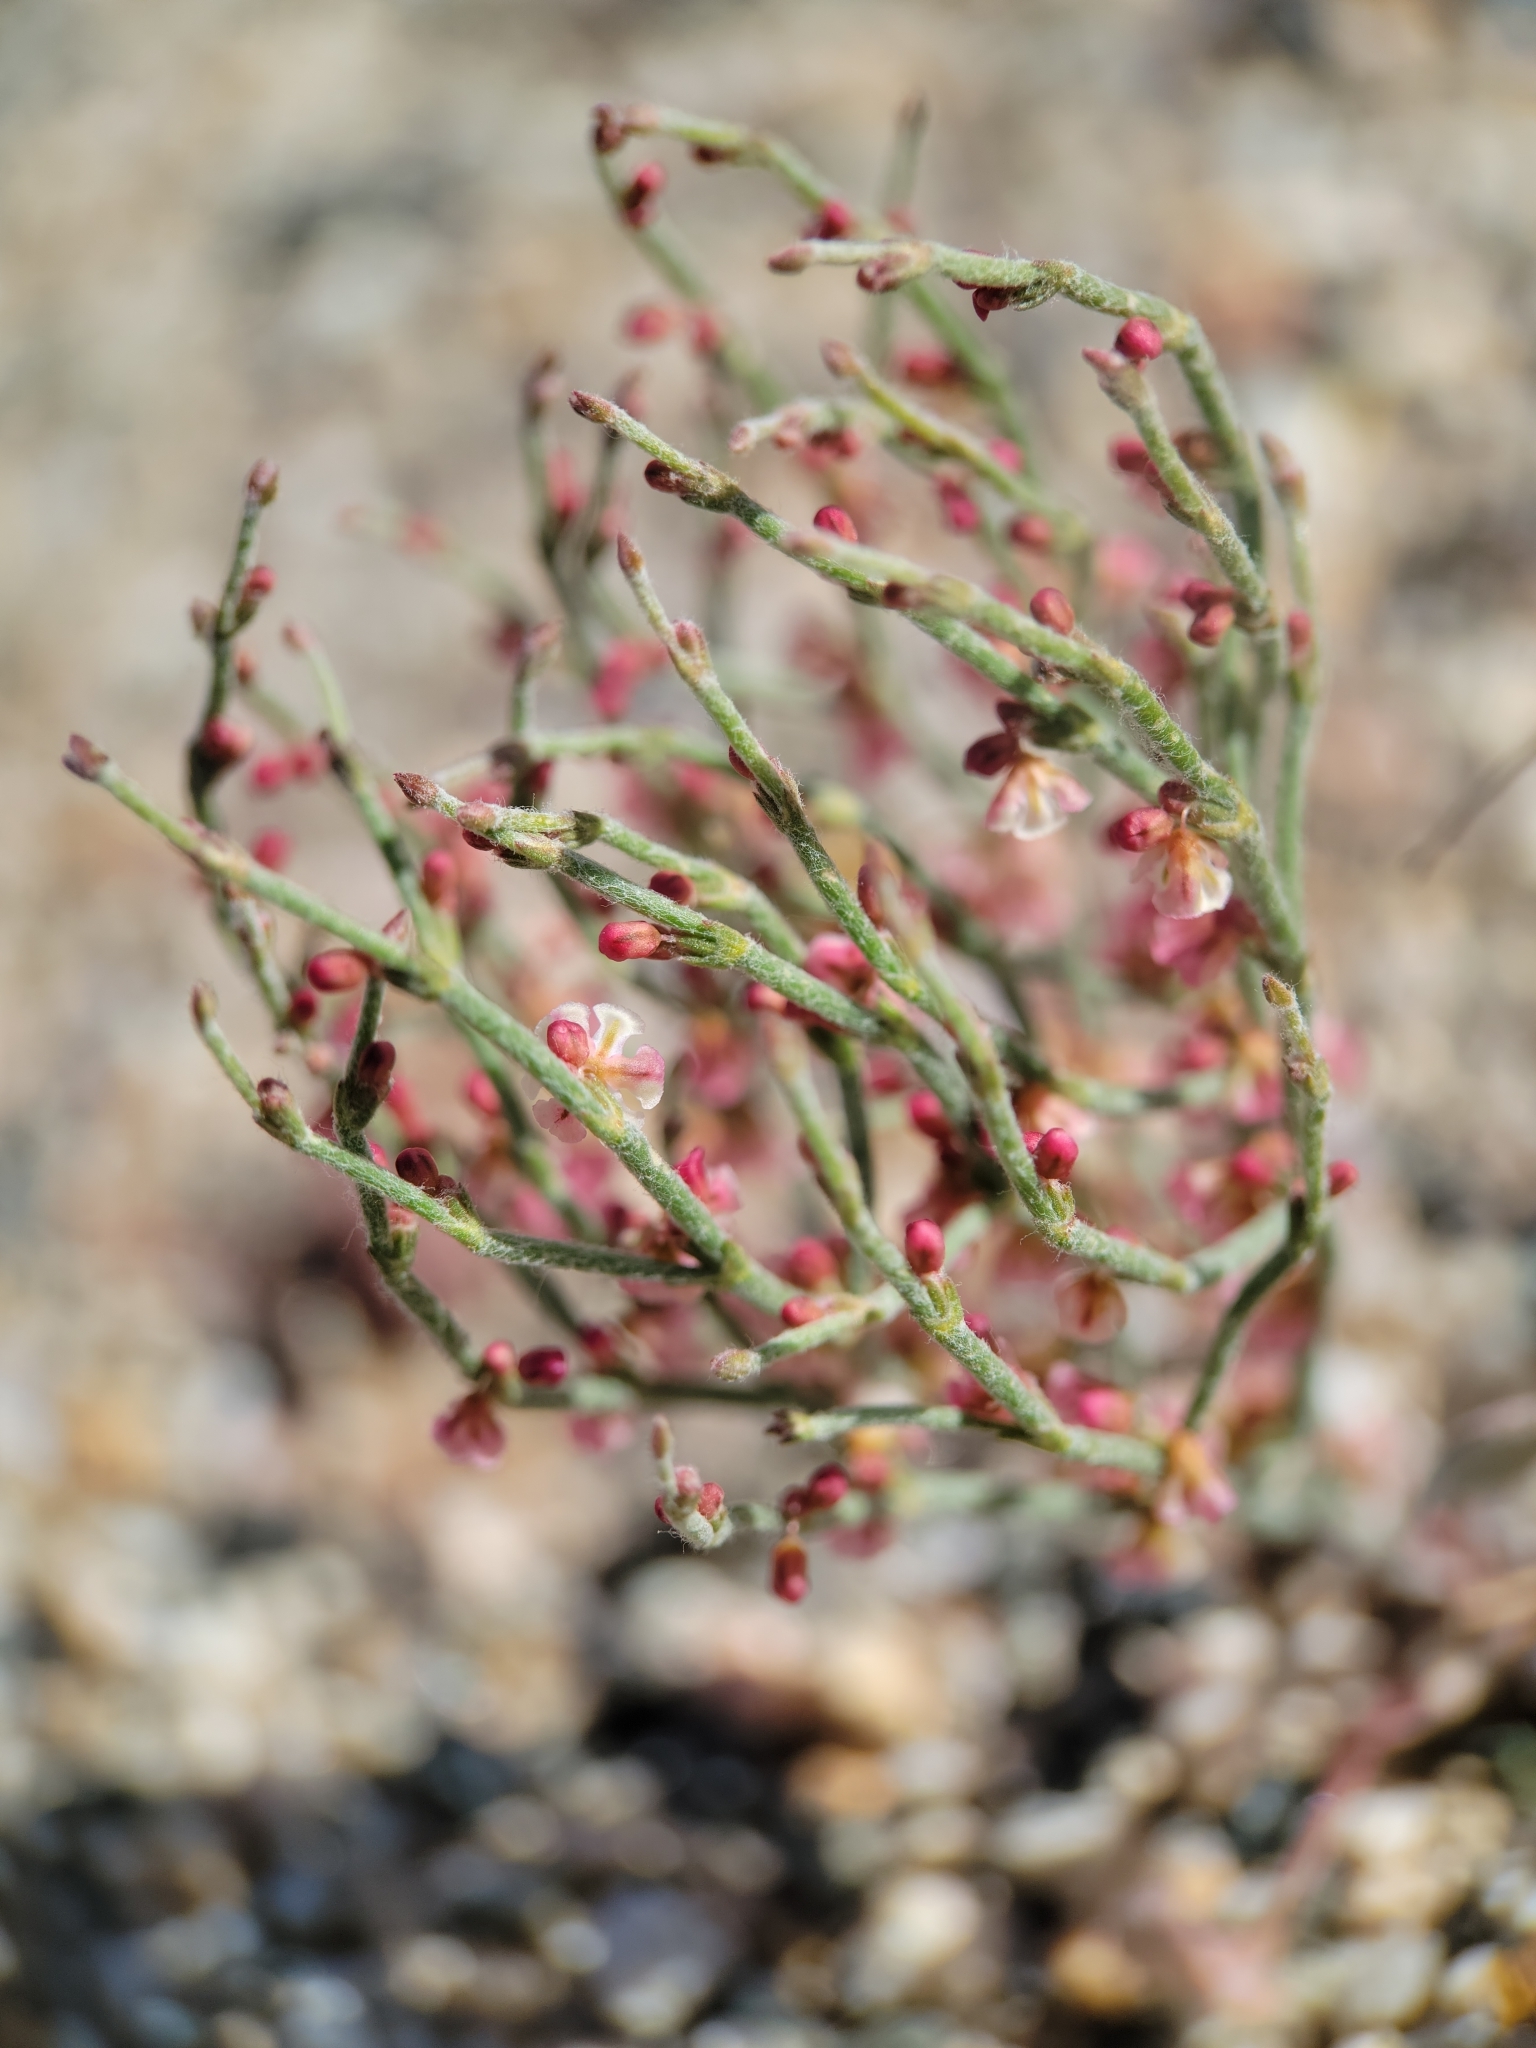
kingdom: Plantae
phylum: Tracheophyta
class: Magnoliopsida
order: Caryophyllales
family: Polygonaceae
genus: Eriogonum
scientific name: Eriogonum nidularium
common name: Bird's-nest wild buckwheat
